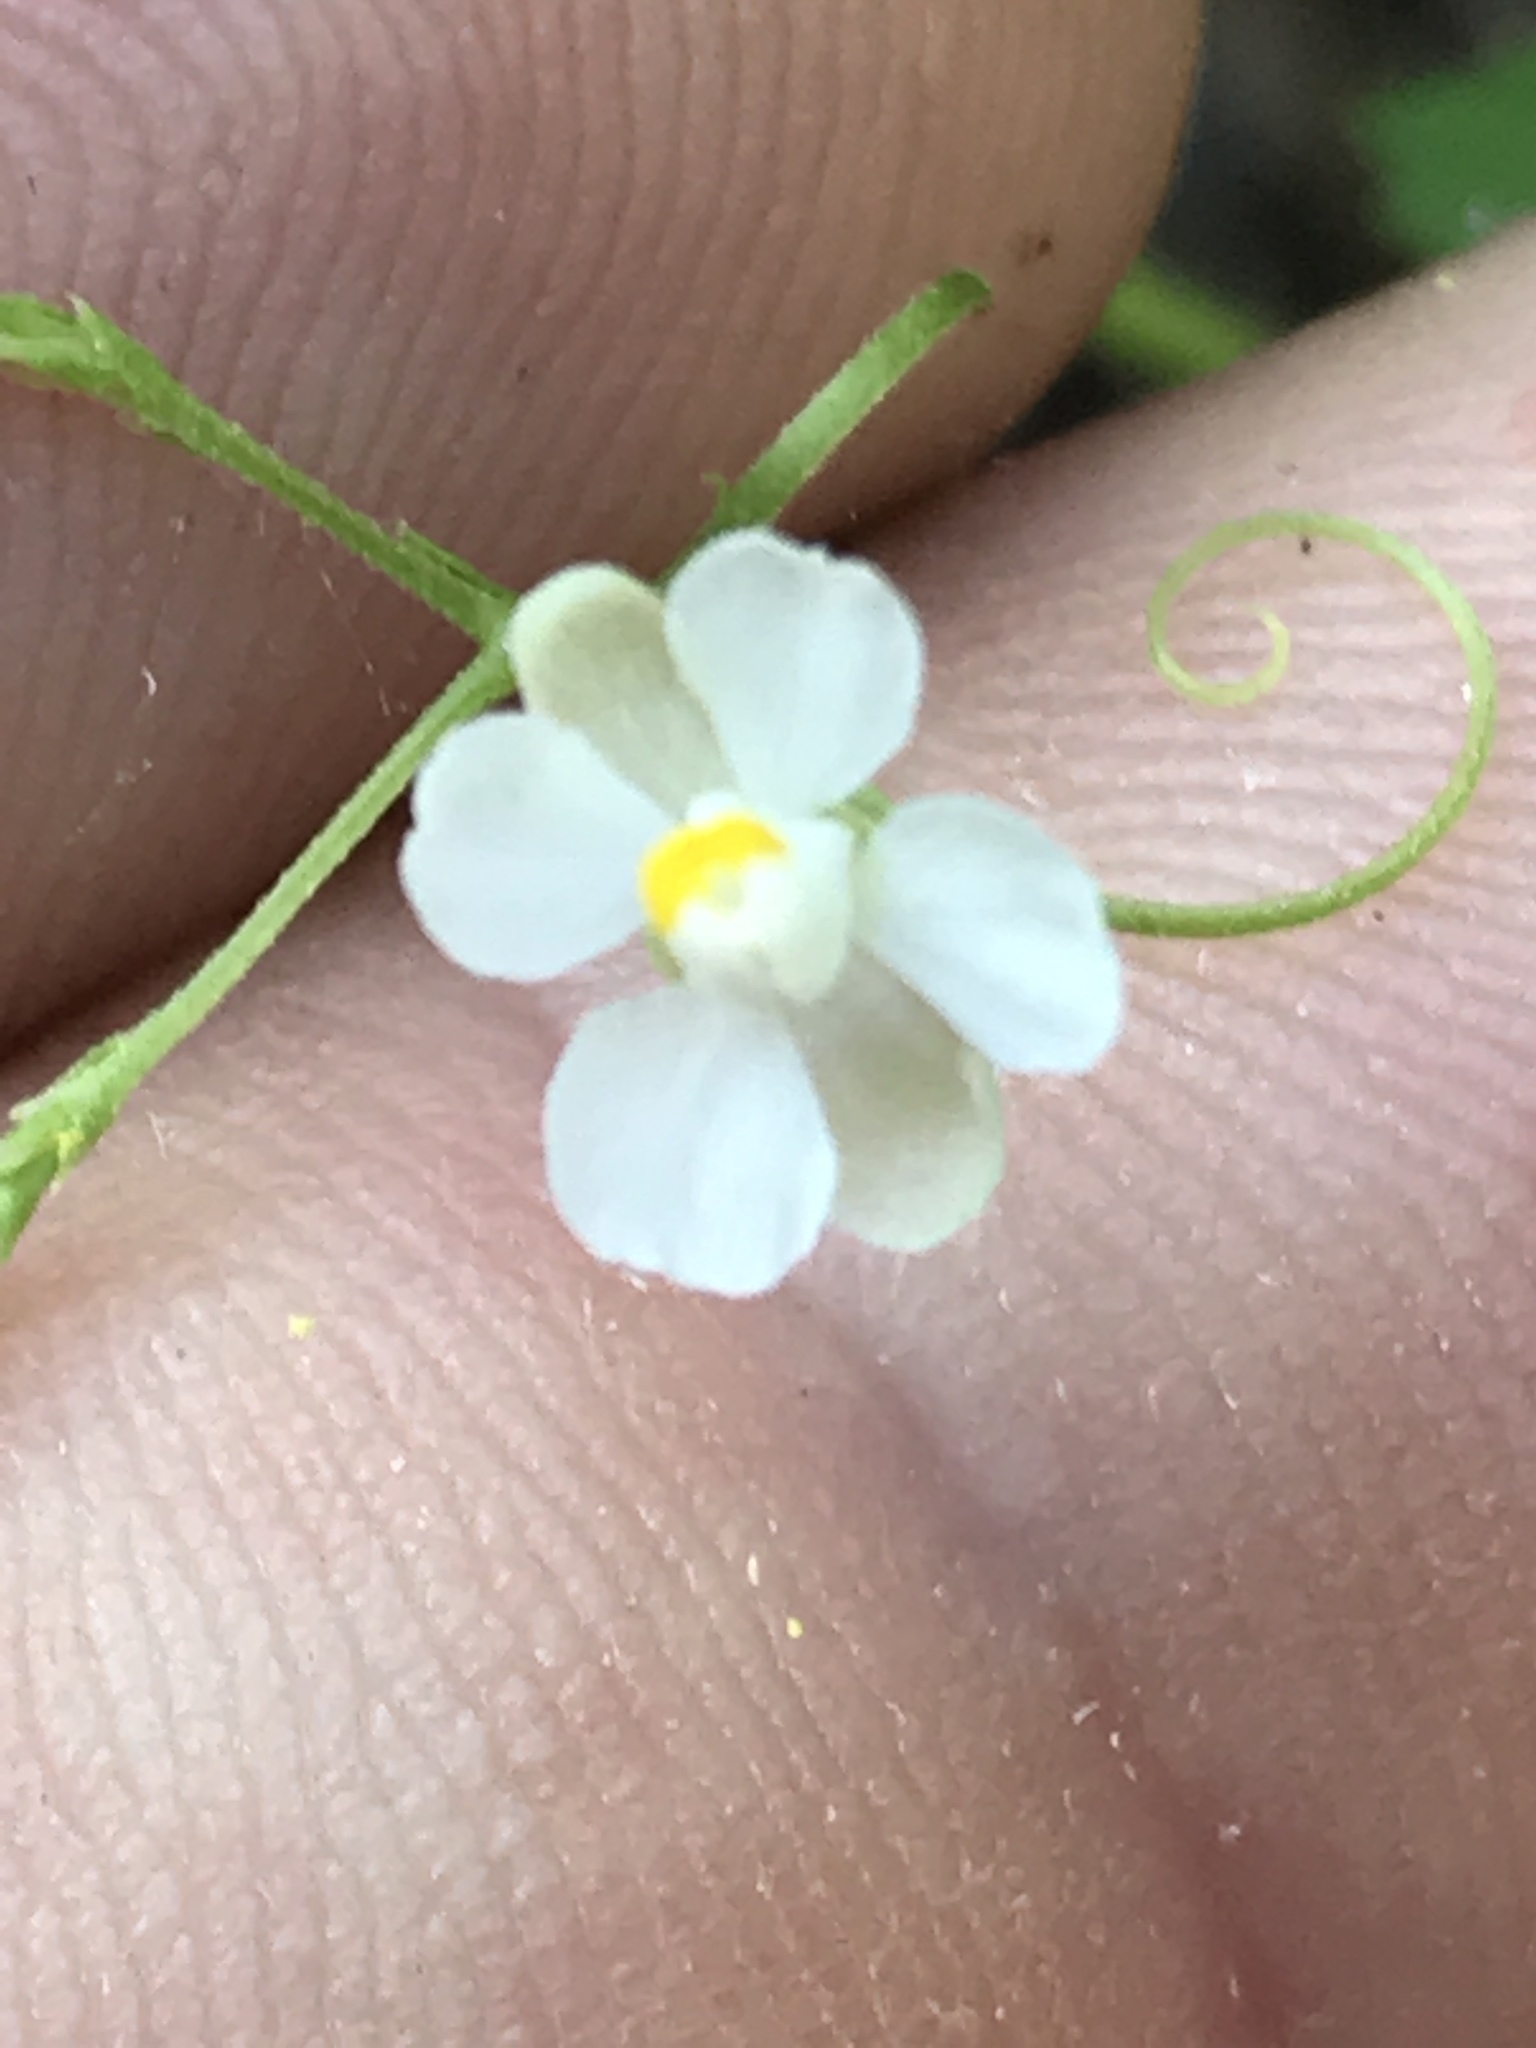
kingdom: Plantae
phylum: Tracheophyta
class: Magnoliopsida
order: Sapindales
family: Sapindaceae
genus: Cardiospermum
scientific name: Cardiospermum halicacabum
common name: Balloon vine
